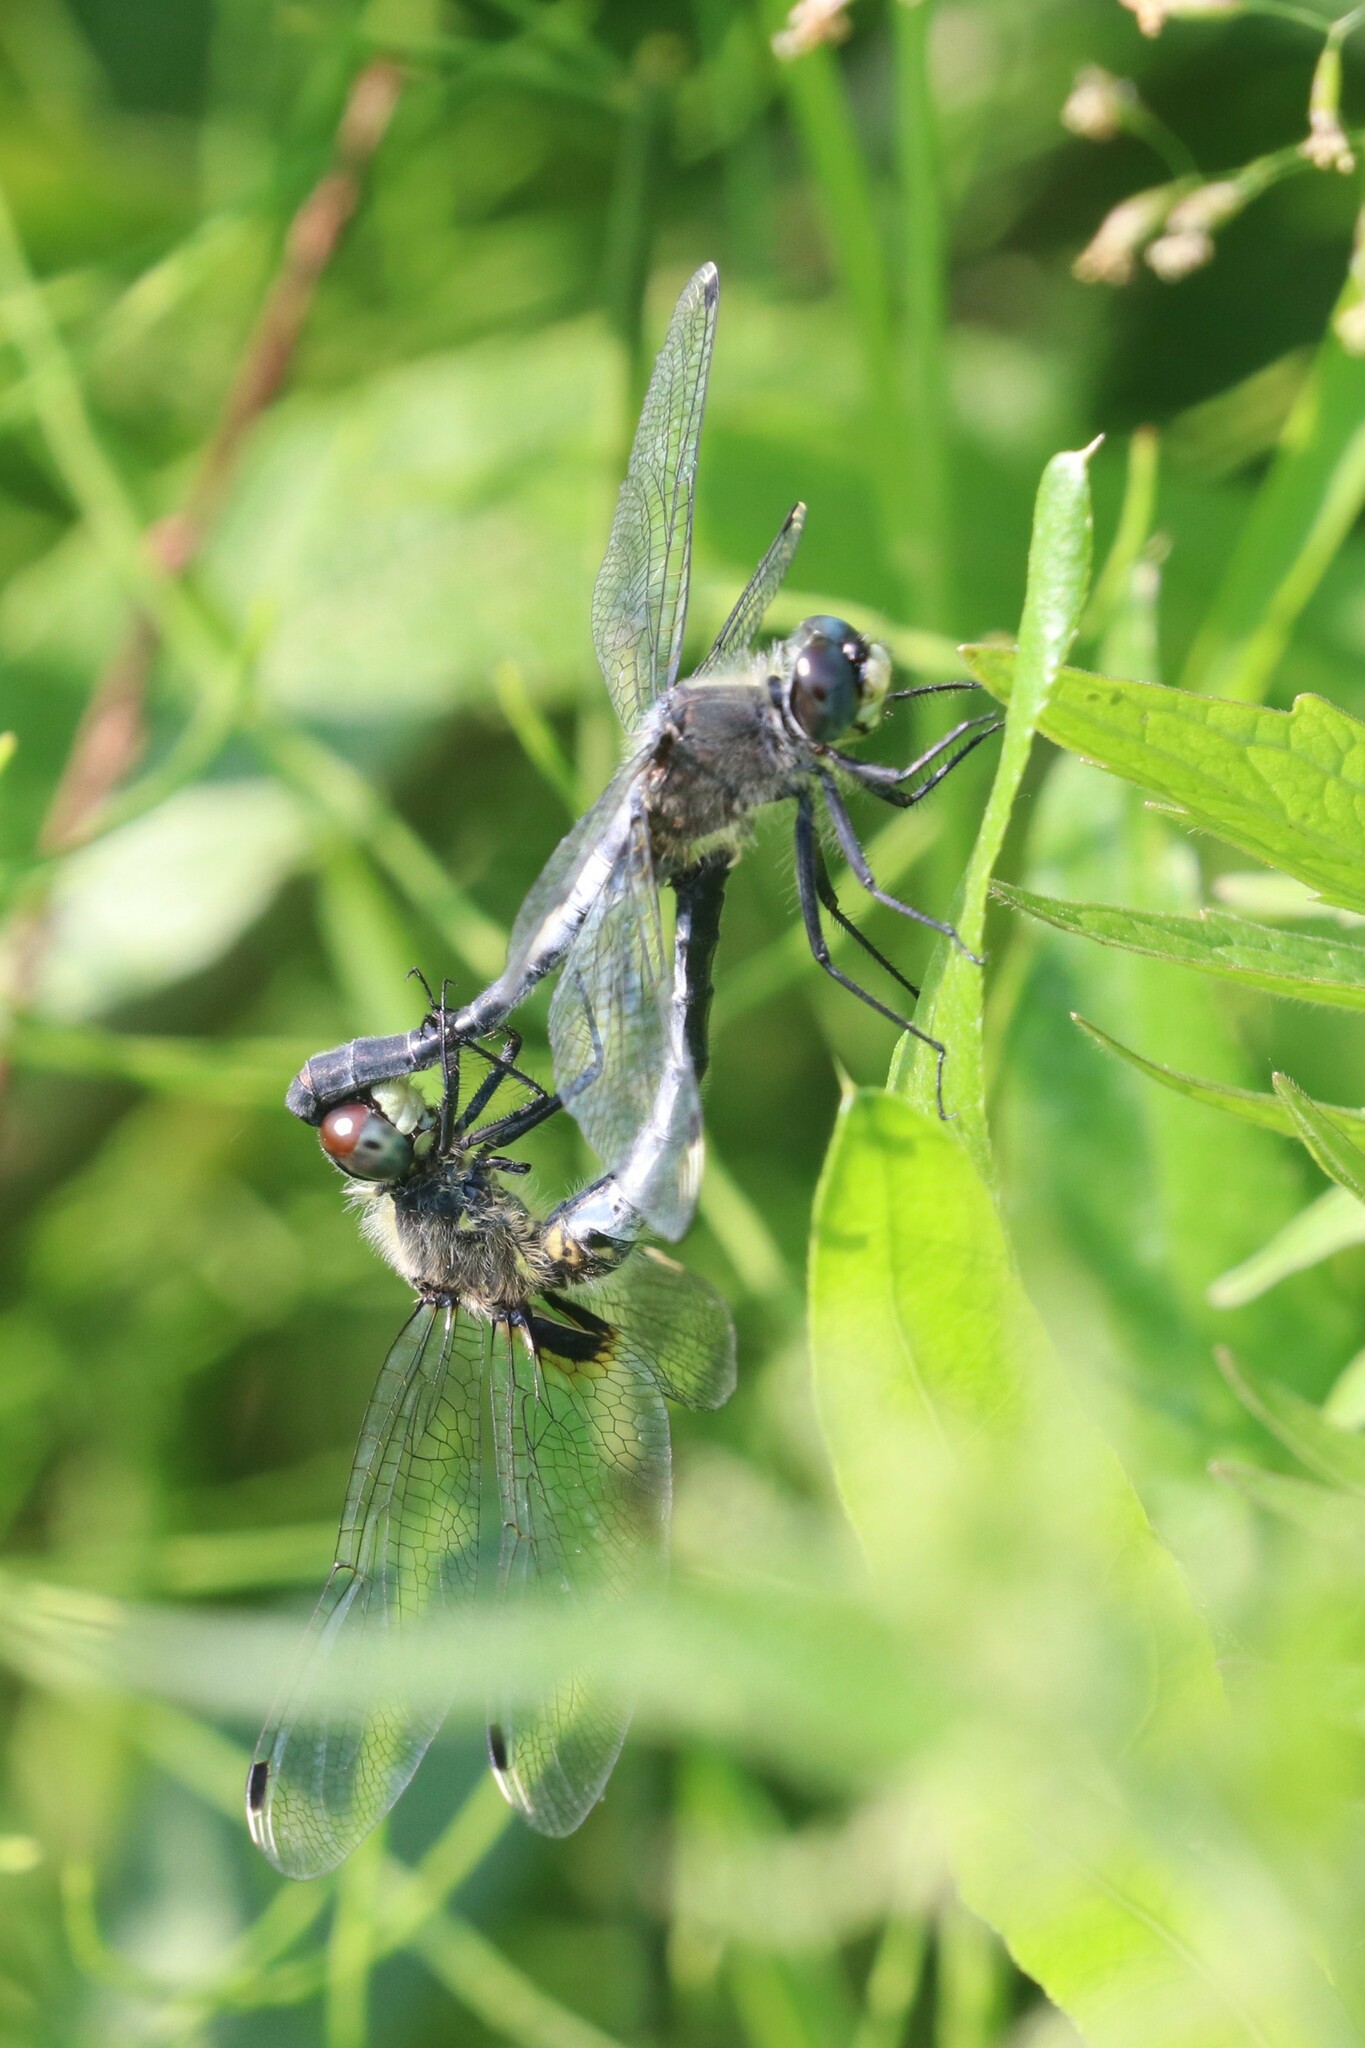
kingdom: Animalia
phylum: Arthropoda
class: Insecta
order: Odonata
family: Libellulidae
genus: Leucorrhinia
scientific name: Leucorrhinia albifrons
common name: Dark whiteface
